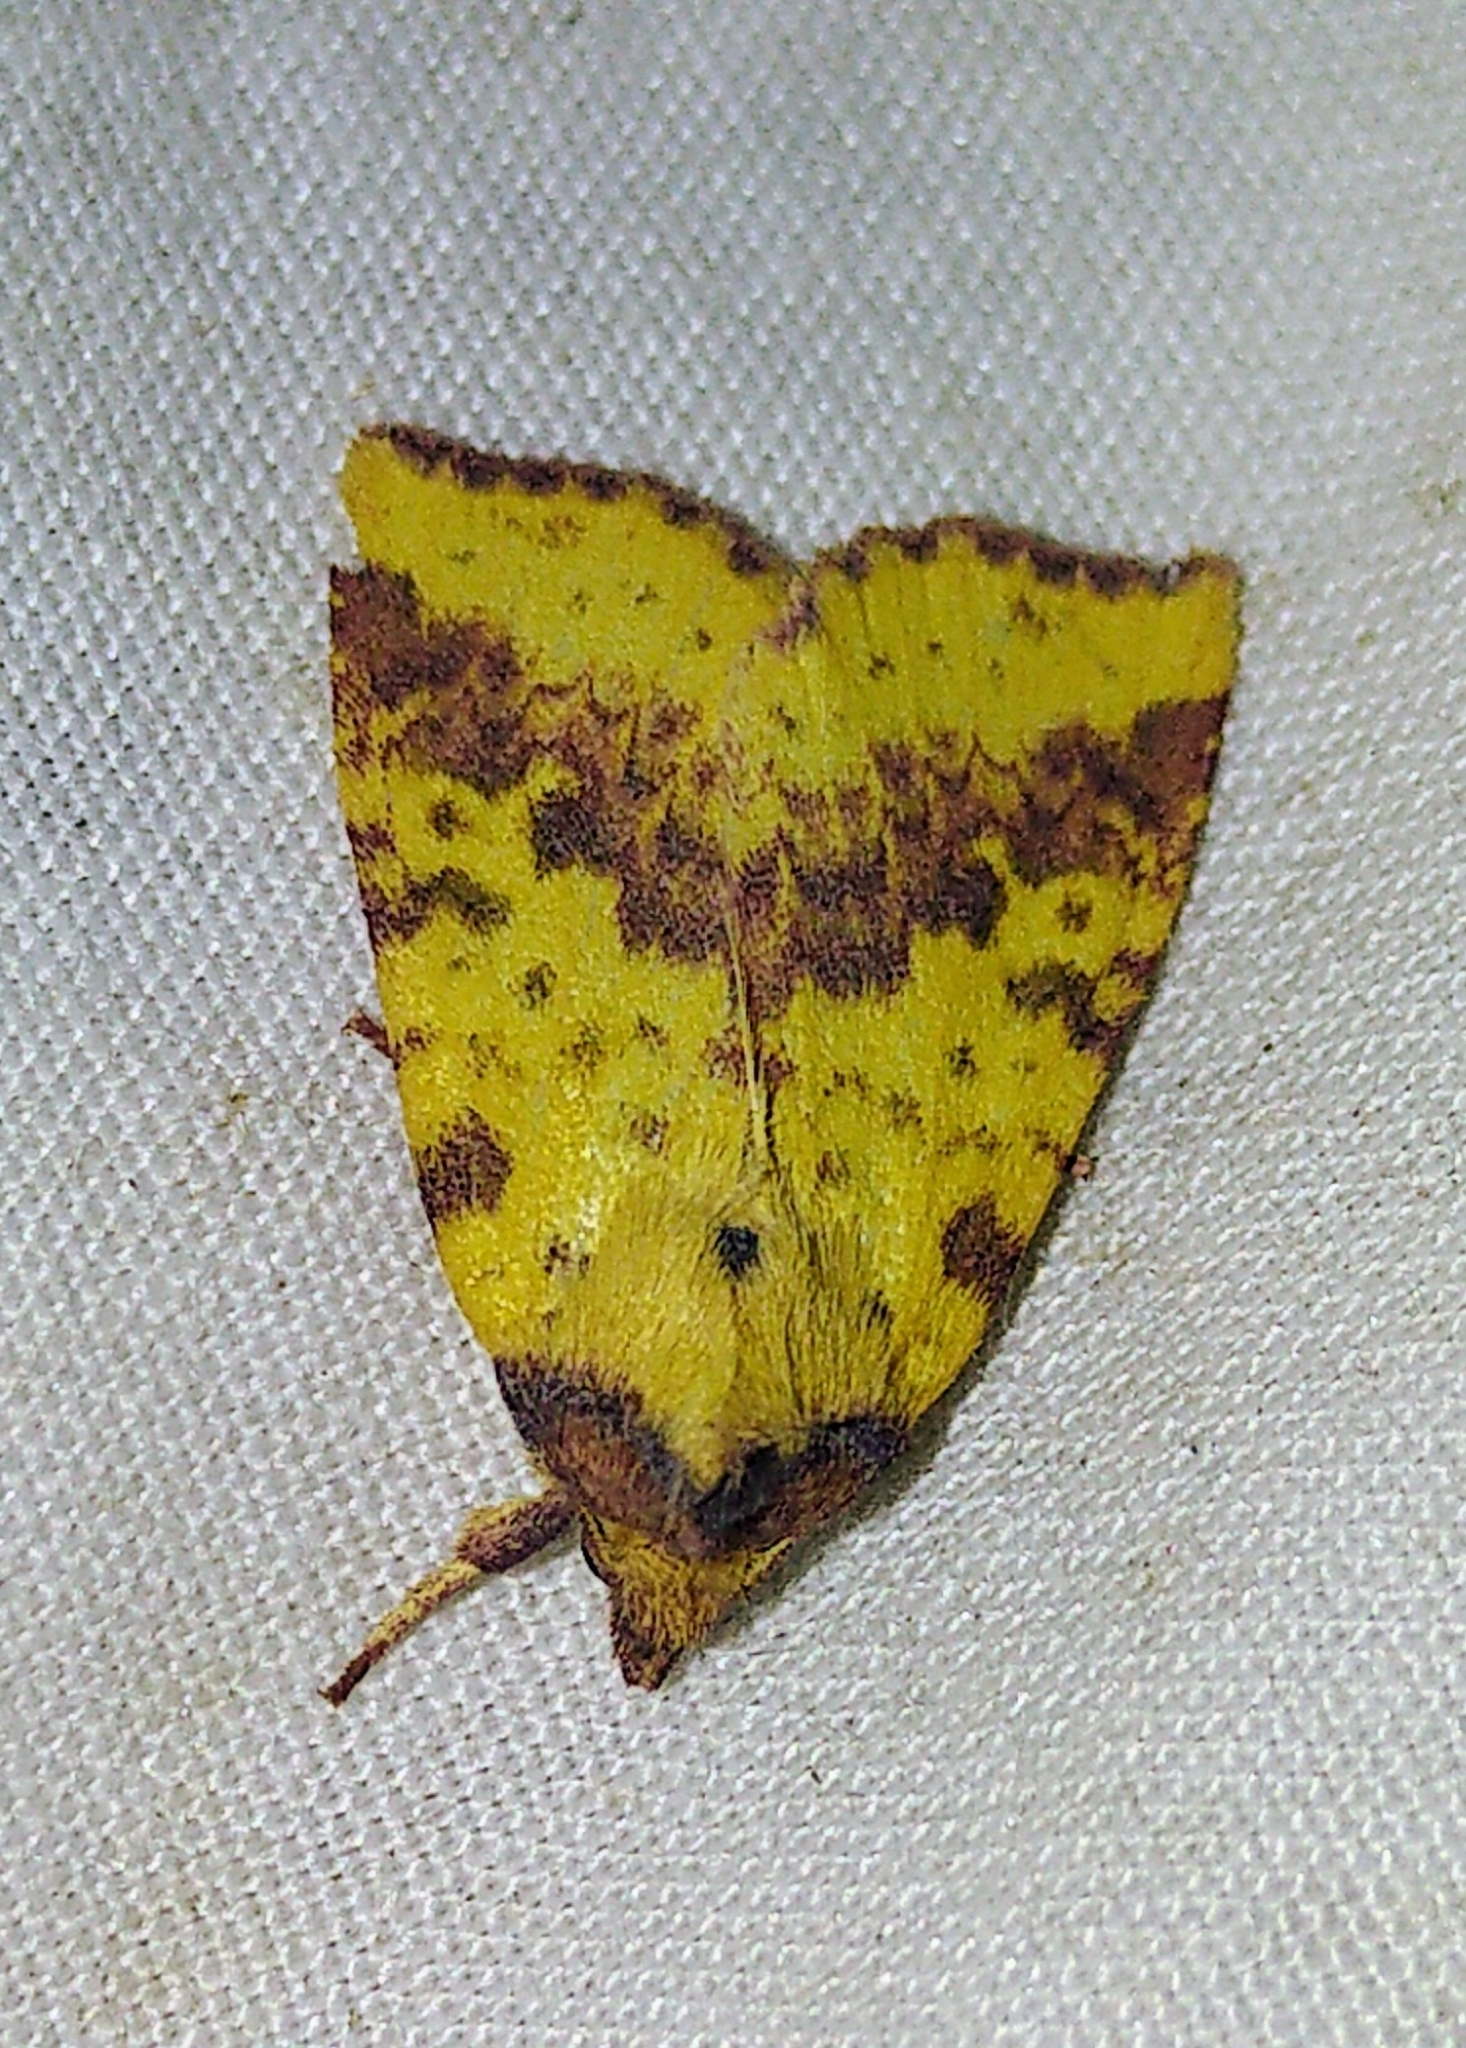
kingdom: Animalia
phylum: Arthropoda
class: Insecta
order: Lepidoptera
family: Noctuidae
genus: Xanthia
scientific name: Xanthia tatago
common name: Pink-banded sallow
